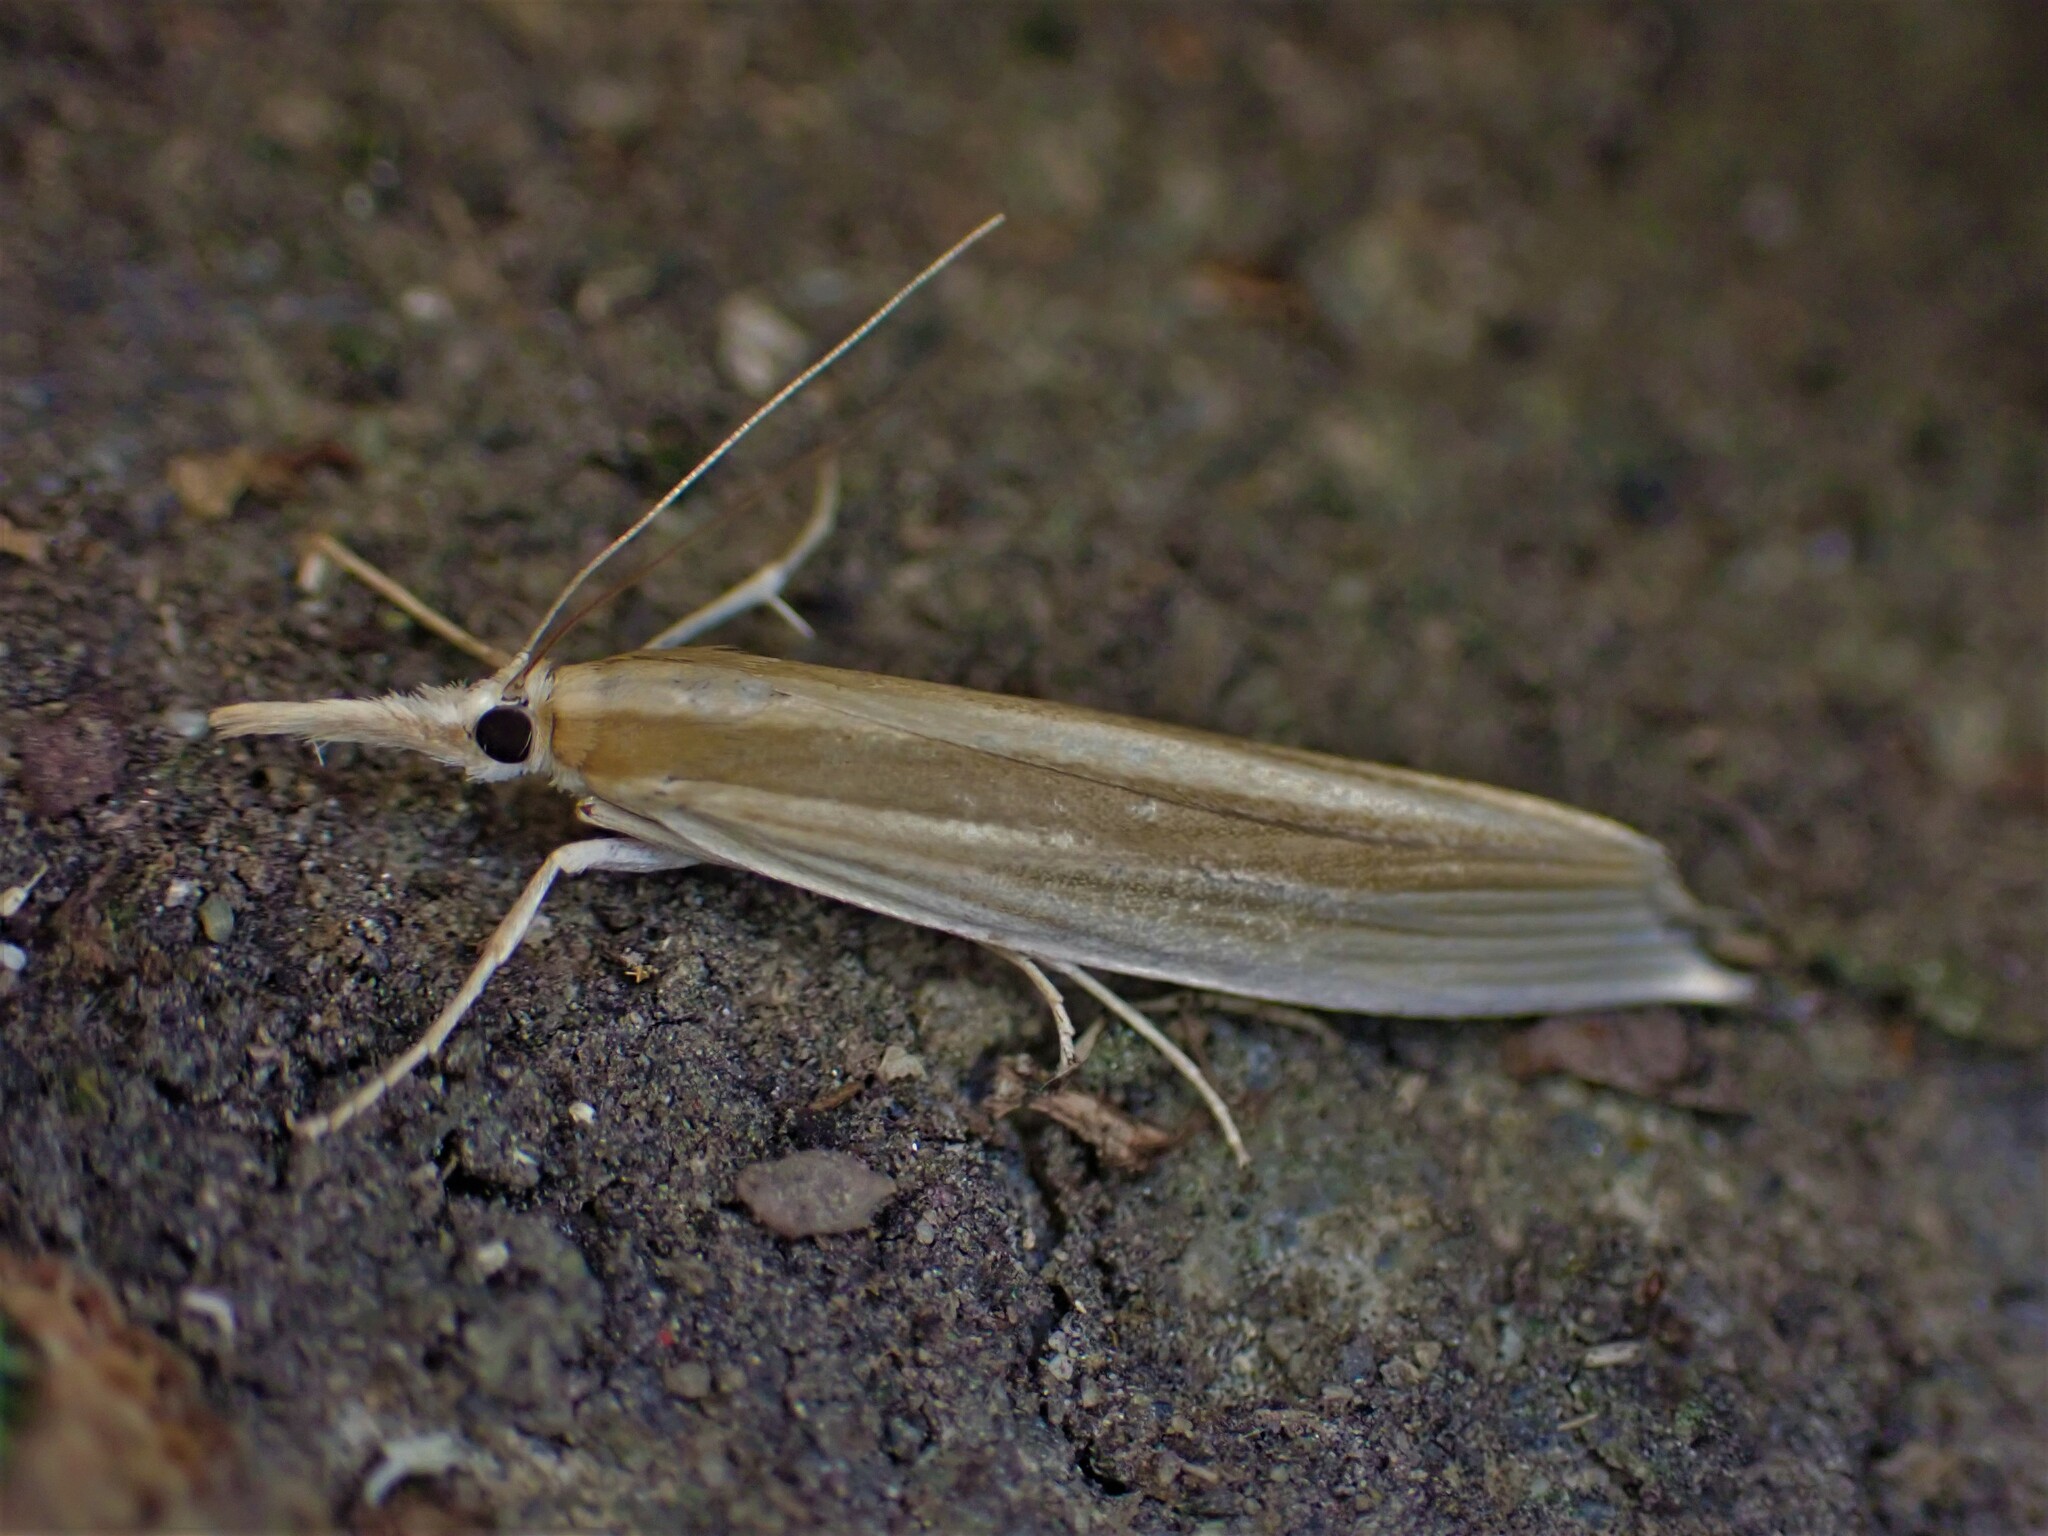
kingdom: Animalia
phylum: Arthropoda
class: Insecta
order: Lepidoptera
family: Crambidae
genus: Orocrambus
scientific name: Orocrambus angustipennis
